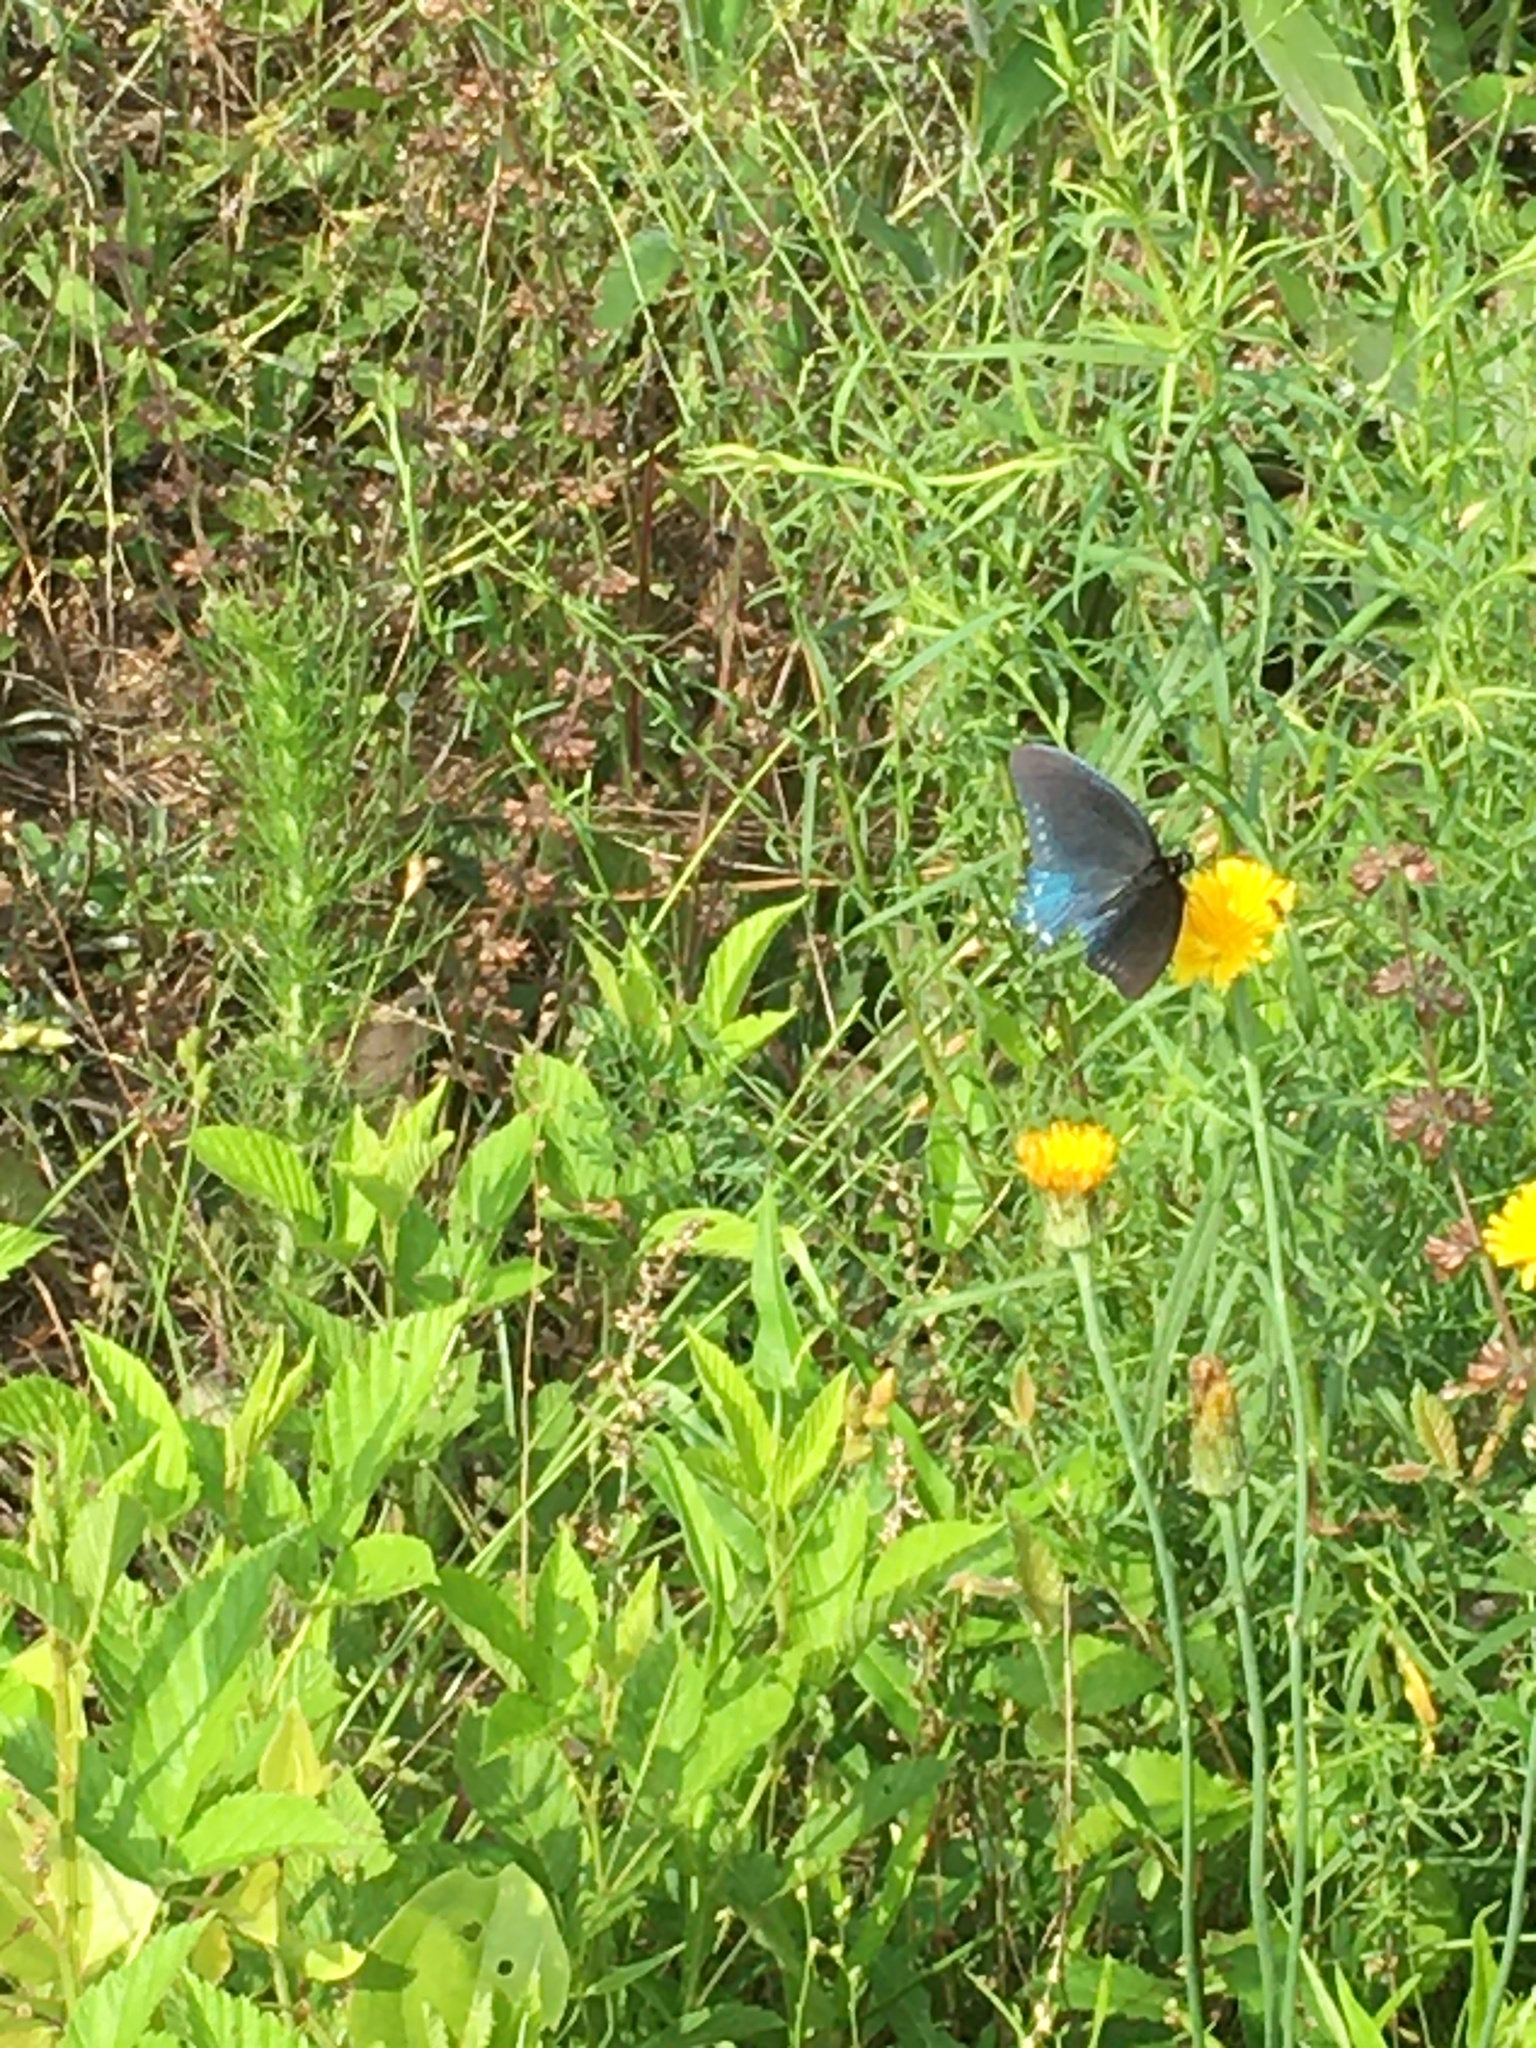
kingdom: Animalia
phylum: Arthropoda
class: Insecta
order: Lepidoptera
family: Papilionidae
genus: Battus
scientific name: Battus philenor
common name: Pipevine swallowtail
